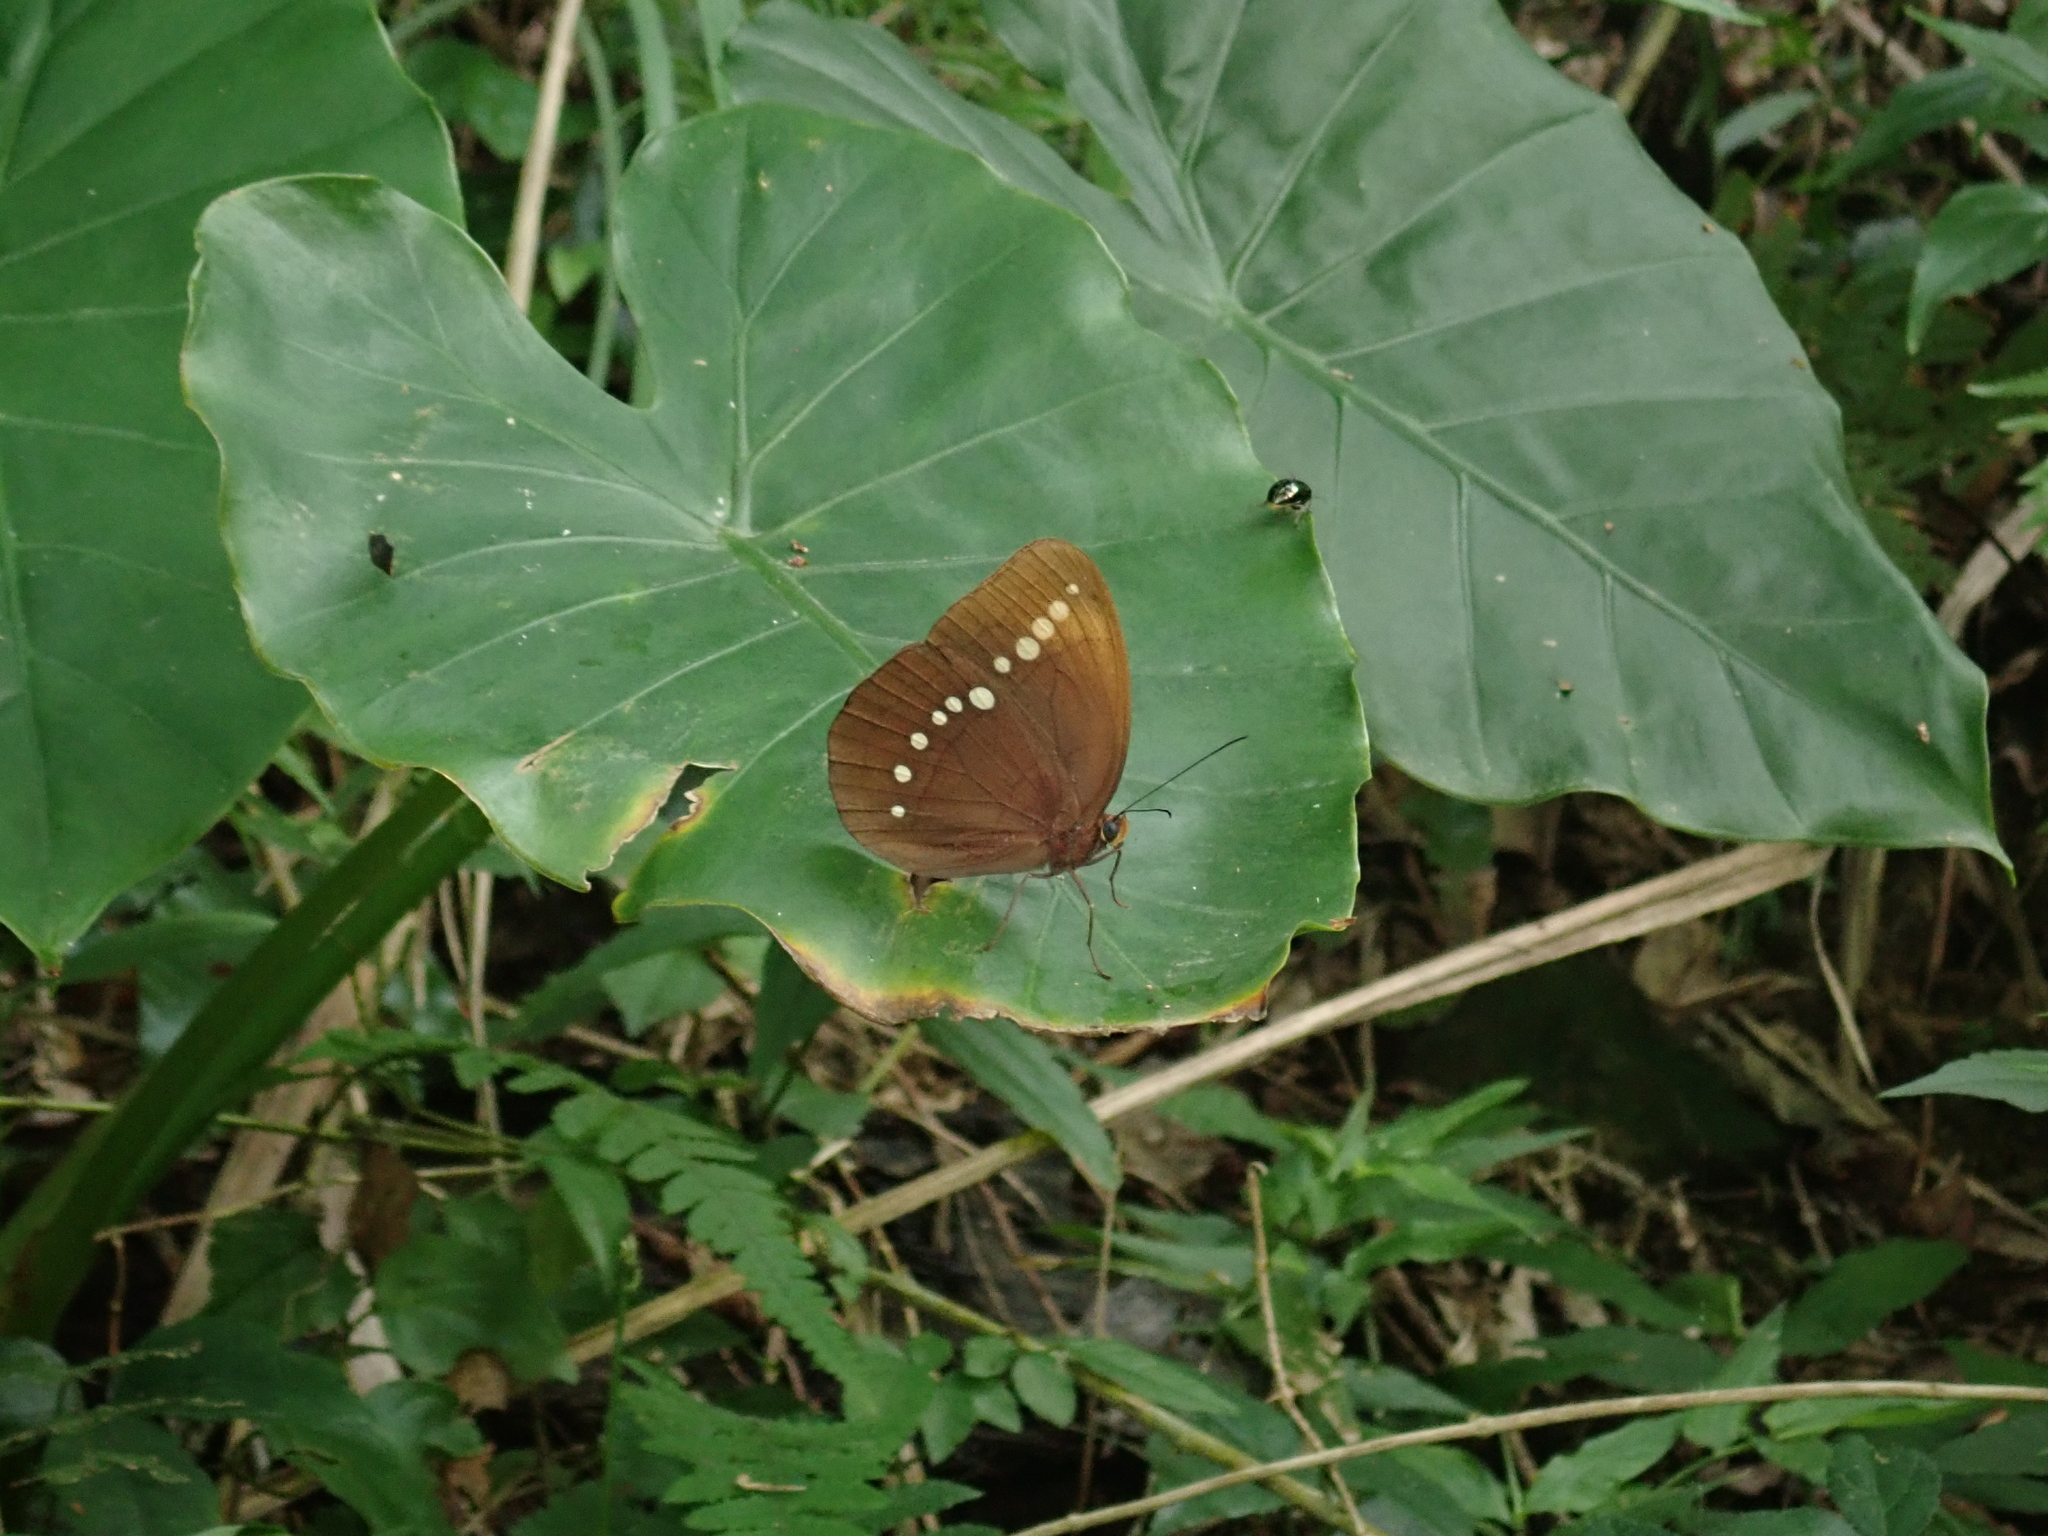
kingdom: Animalia
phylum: Arthropoda
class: Insecta
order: Lepidoptera
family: Nymphalidae
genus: Faunis
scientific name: Faunis eumeus
